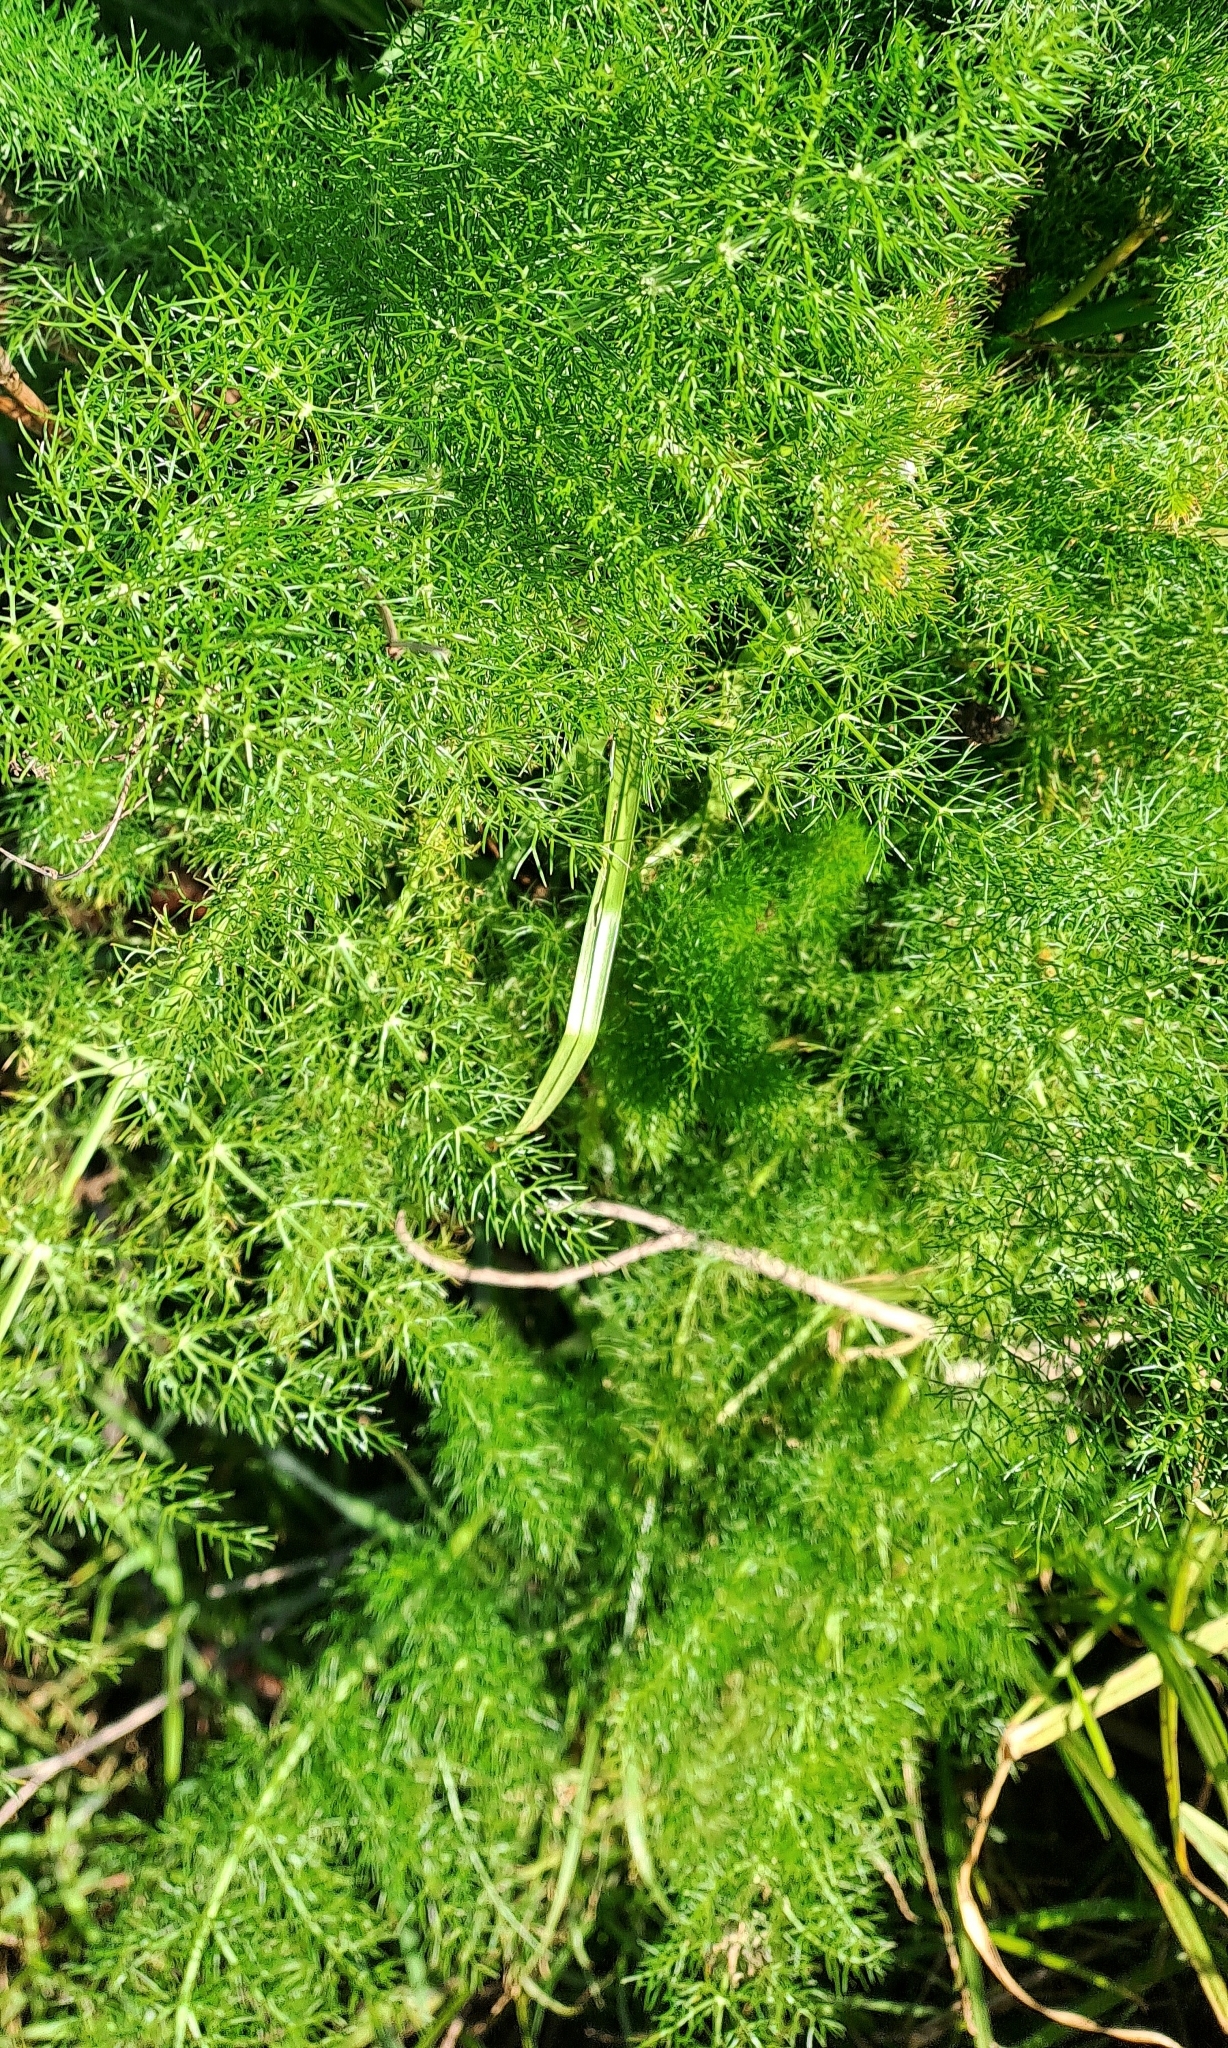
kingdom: Plantae
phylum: Tracheophyta
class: Magnoliopsida
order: Apiales
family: Apiaceae
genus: Foeniculum
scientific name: Foeniculum vulgare
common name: Fennel
